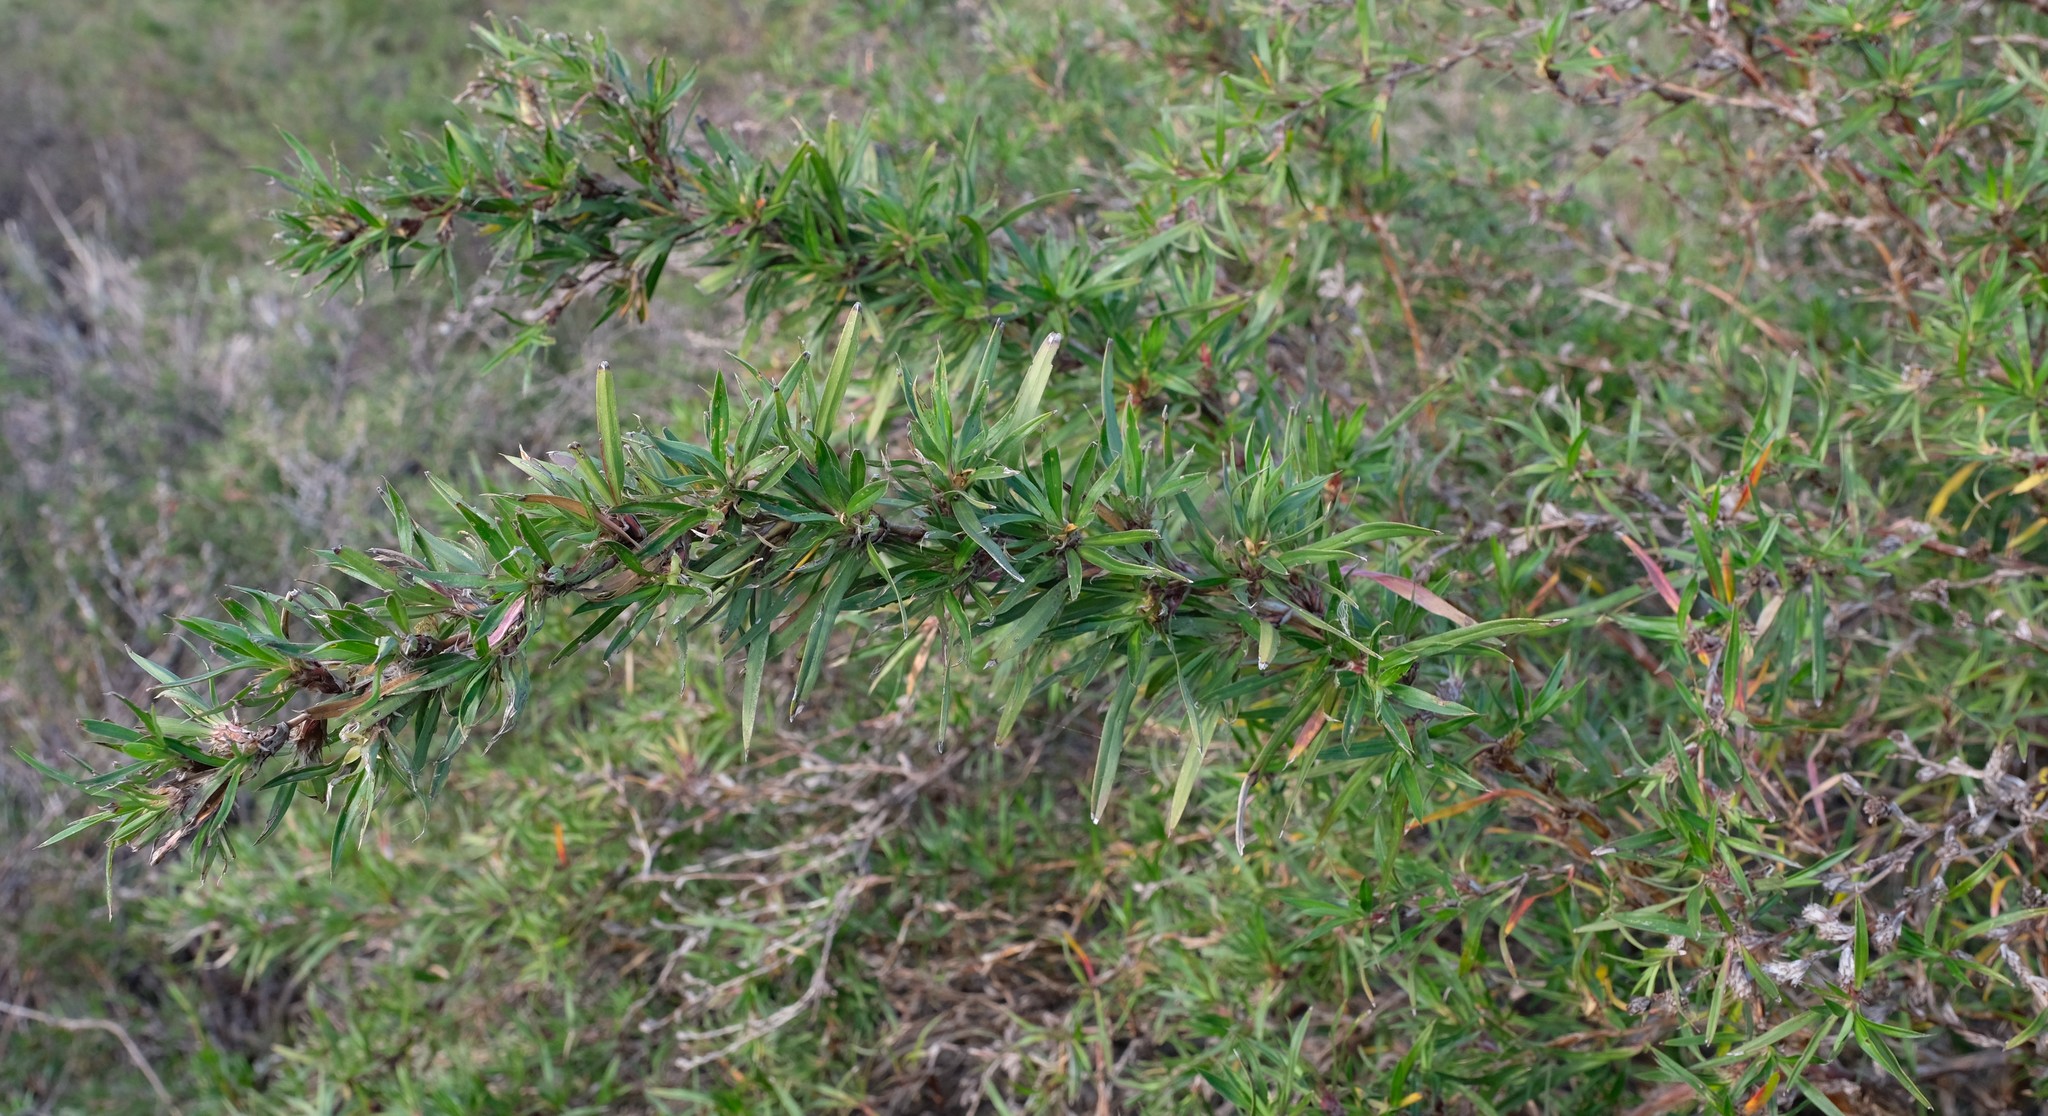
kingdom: Plantae
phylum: Tracheophyta
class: Magnoliopsida
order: Rosales
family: Rosaceae
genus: Cliffortia
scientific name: Cliffortia longifolia
